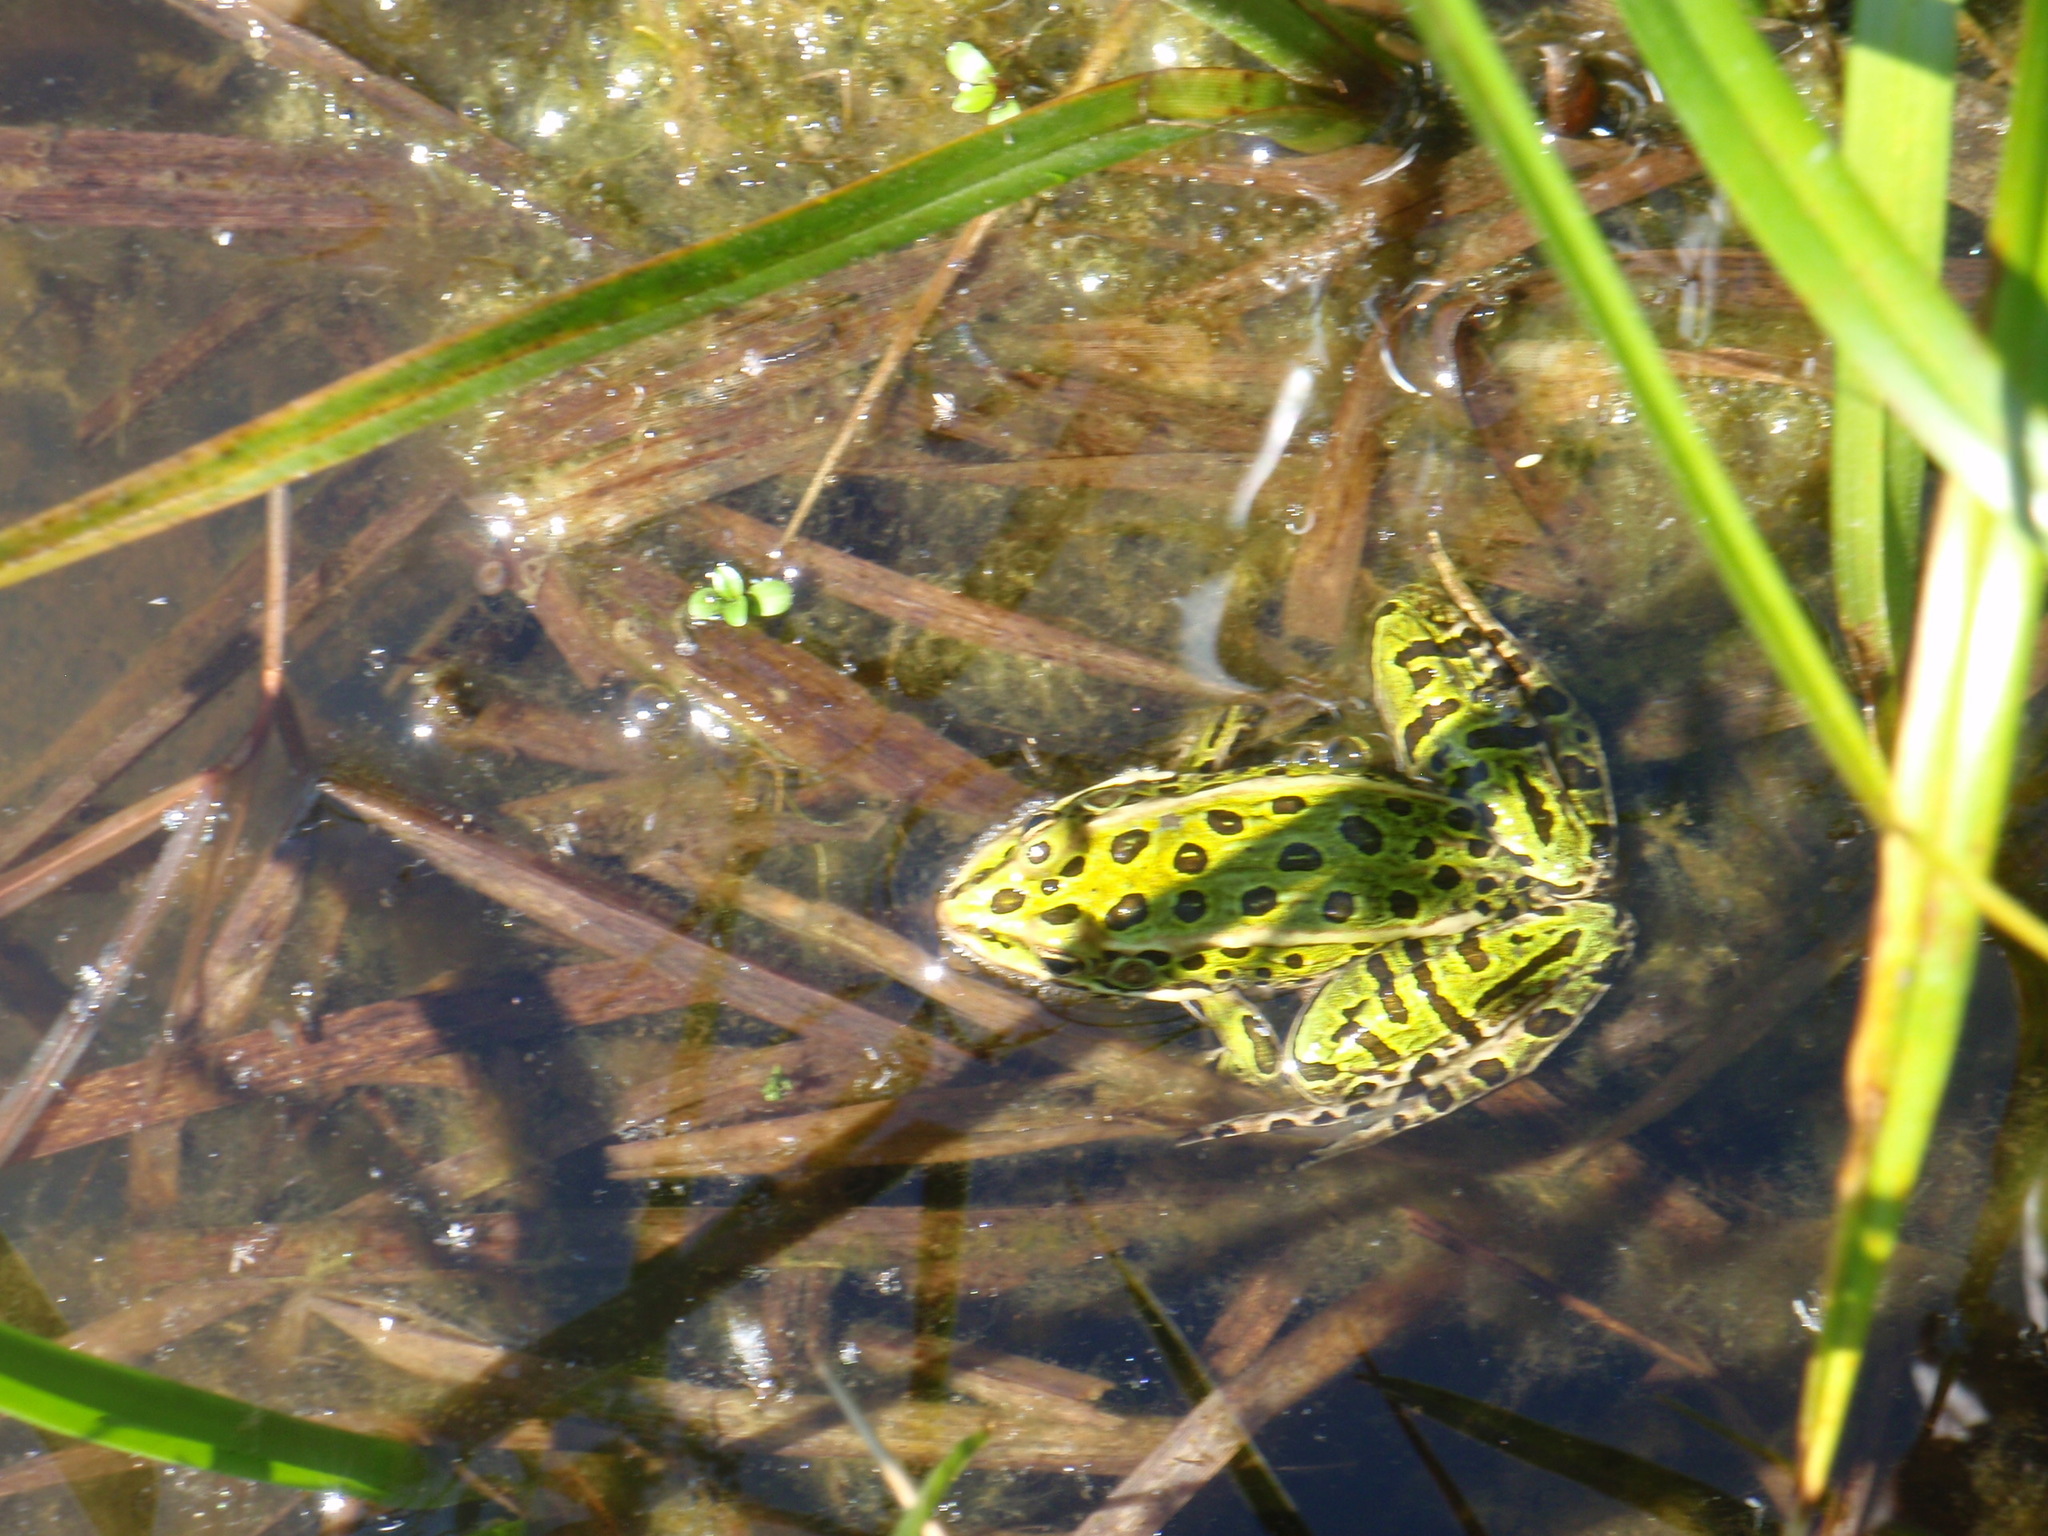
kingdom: Animalia
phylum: Chordata
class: Amphibia
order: Anura
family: Ranidae
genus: Lithobates
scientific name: Lithobates pipiens
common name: Northern leopard frog
